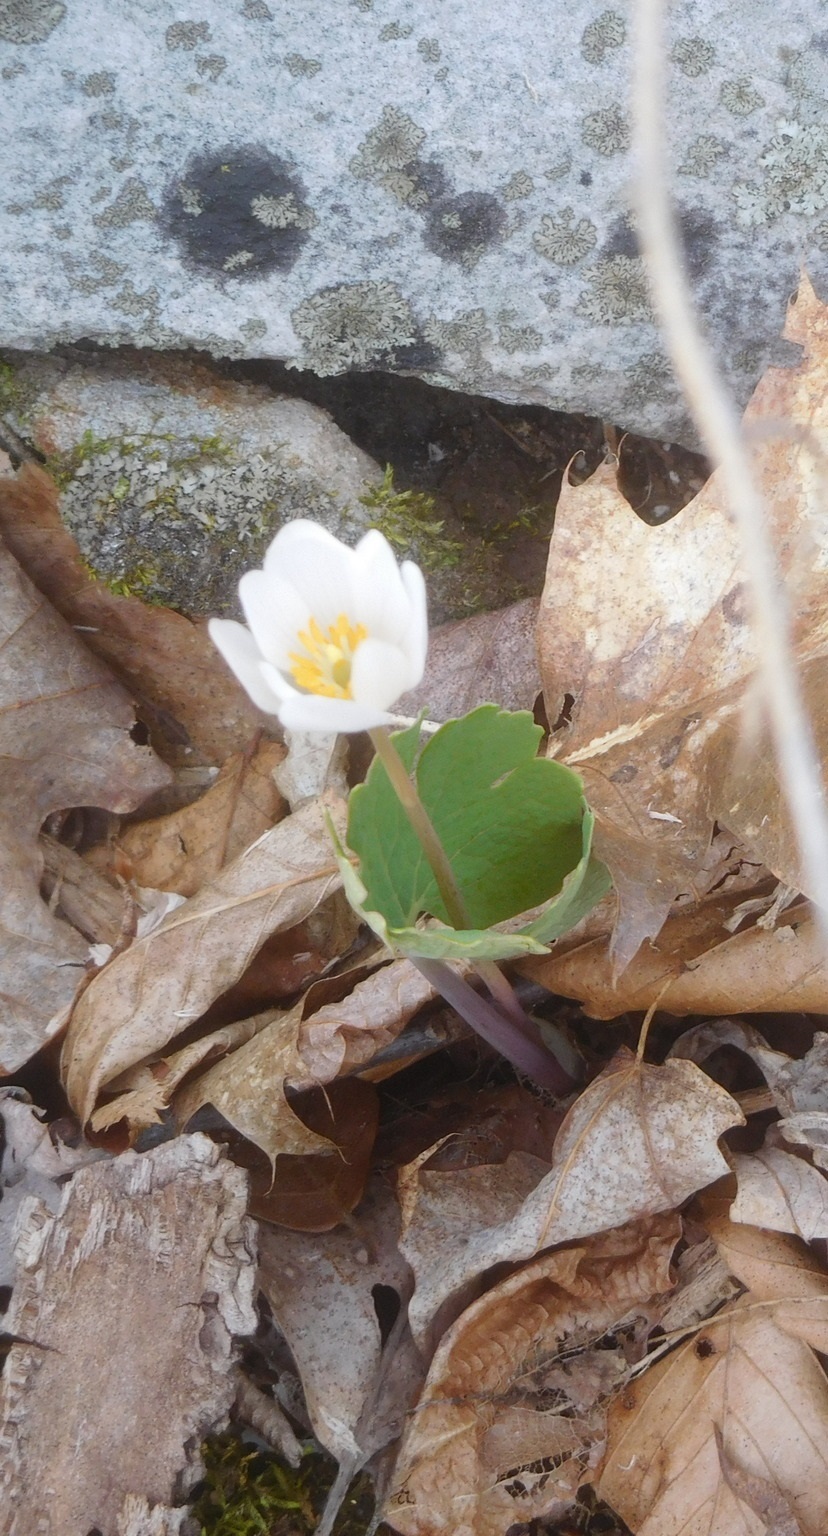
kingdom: Plantae
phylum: Tracheophyta
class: Magnoliopsida
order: Ranunculales
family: Papaveraceae
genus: Sanguinaria
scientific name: Sanguinaria canadensis
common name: Bloodroot
